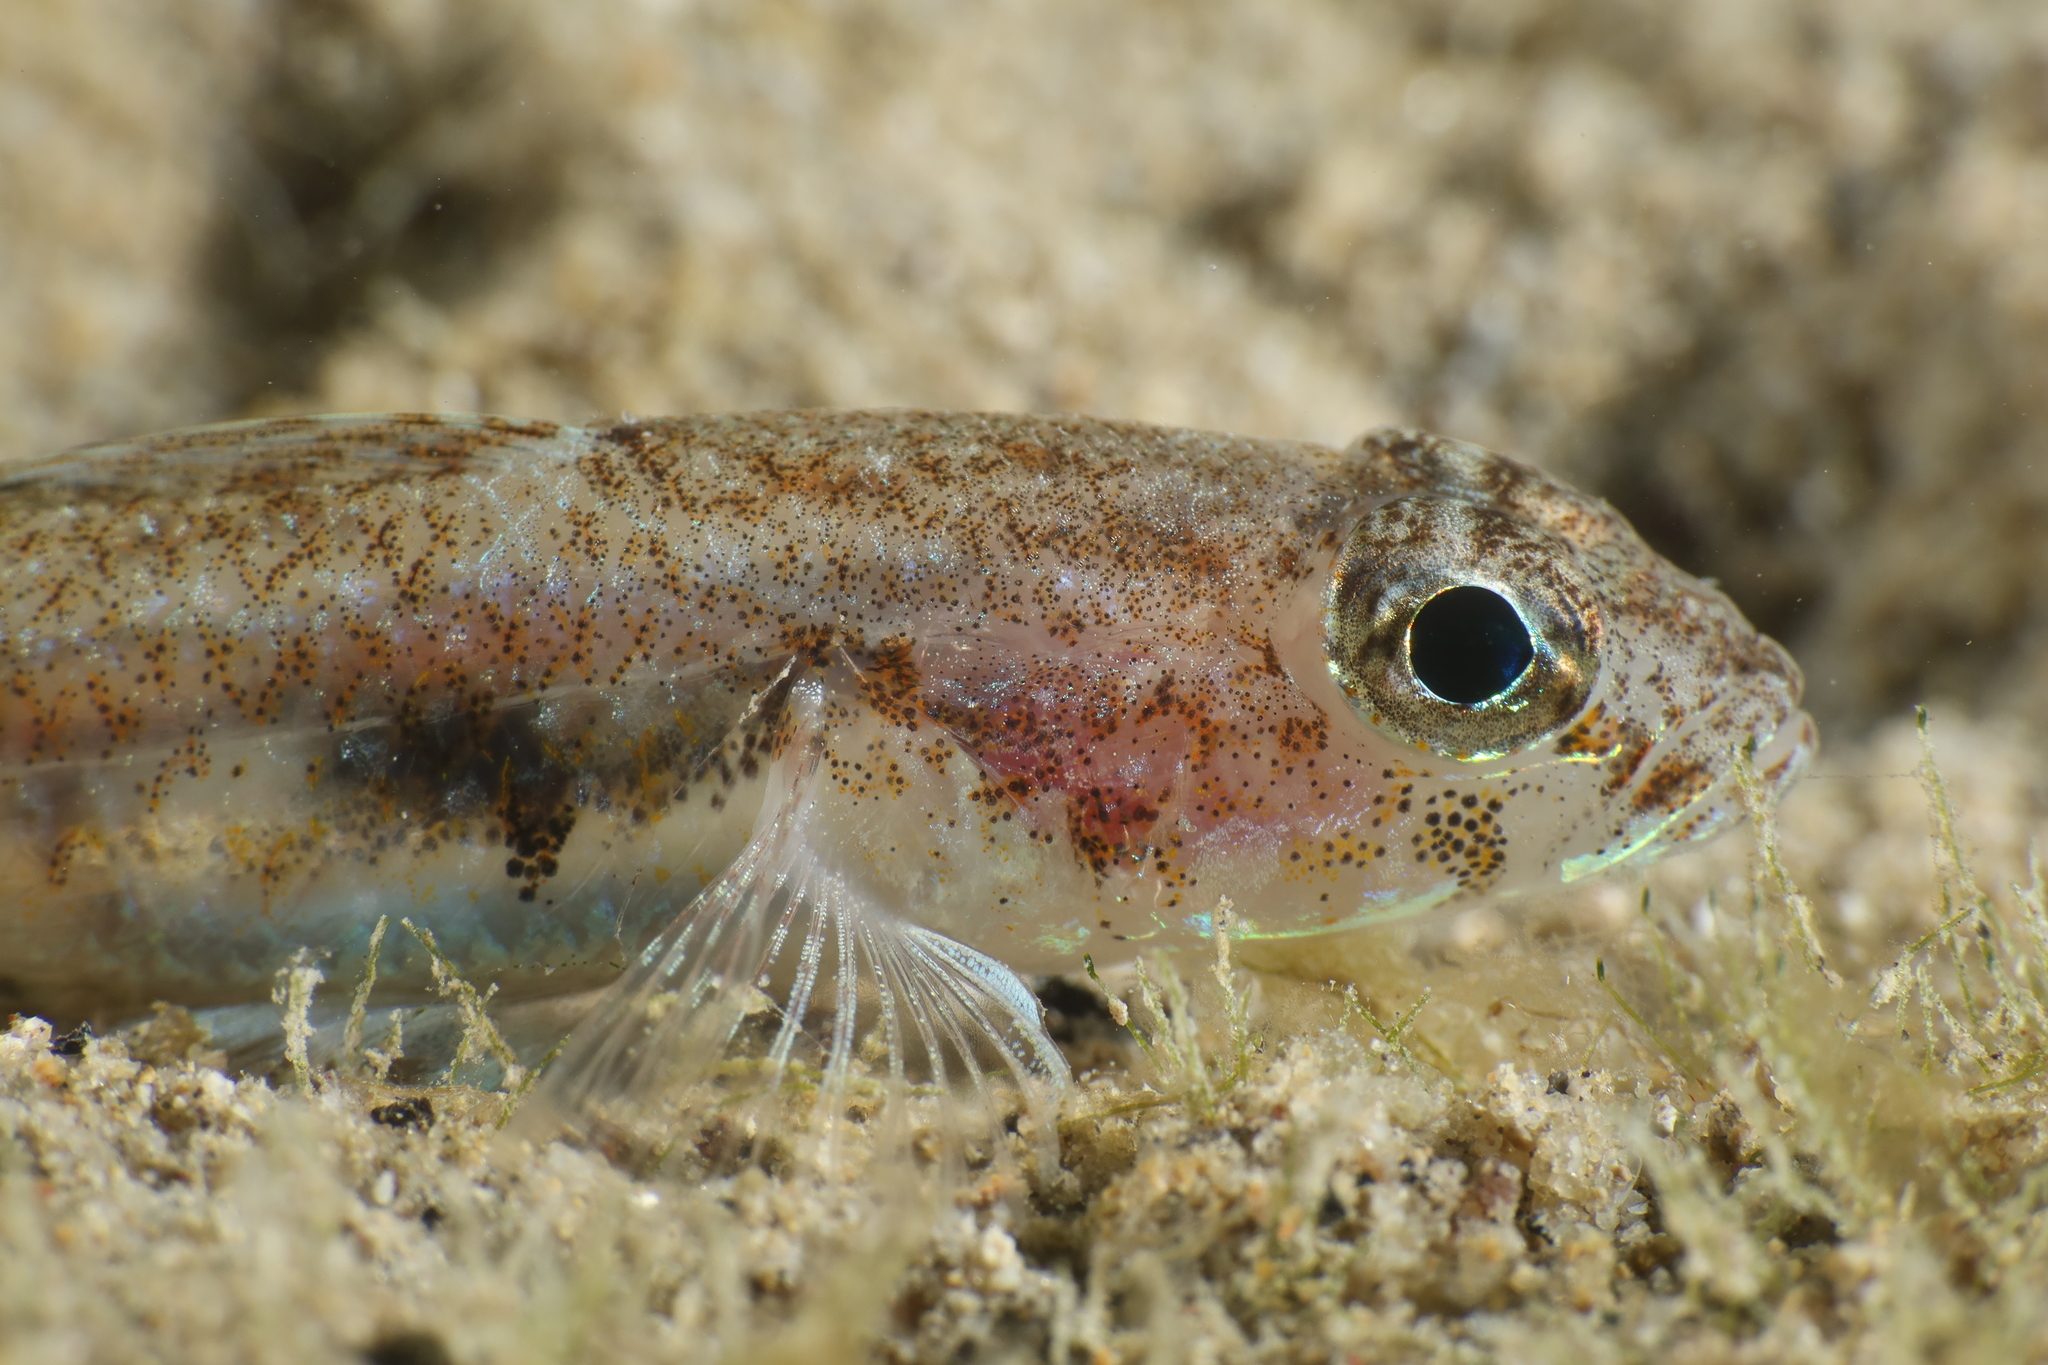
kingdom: Animalia
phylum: Chordata
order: Perciformes
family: Gobiidae
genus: Deltentosteus
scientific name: Deltentosteus quadrimaculatus
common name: Four-spotted goby
